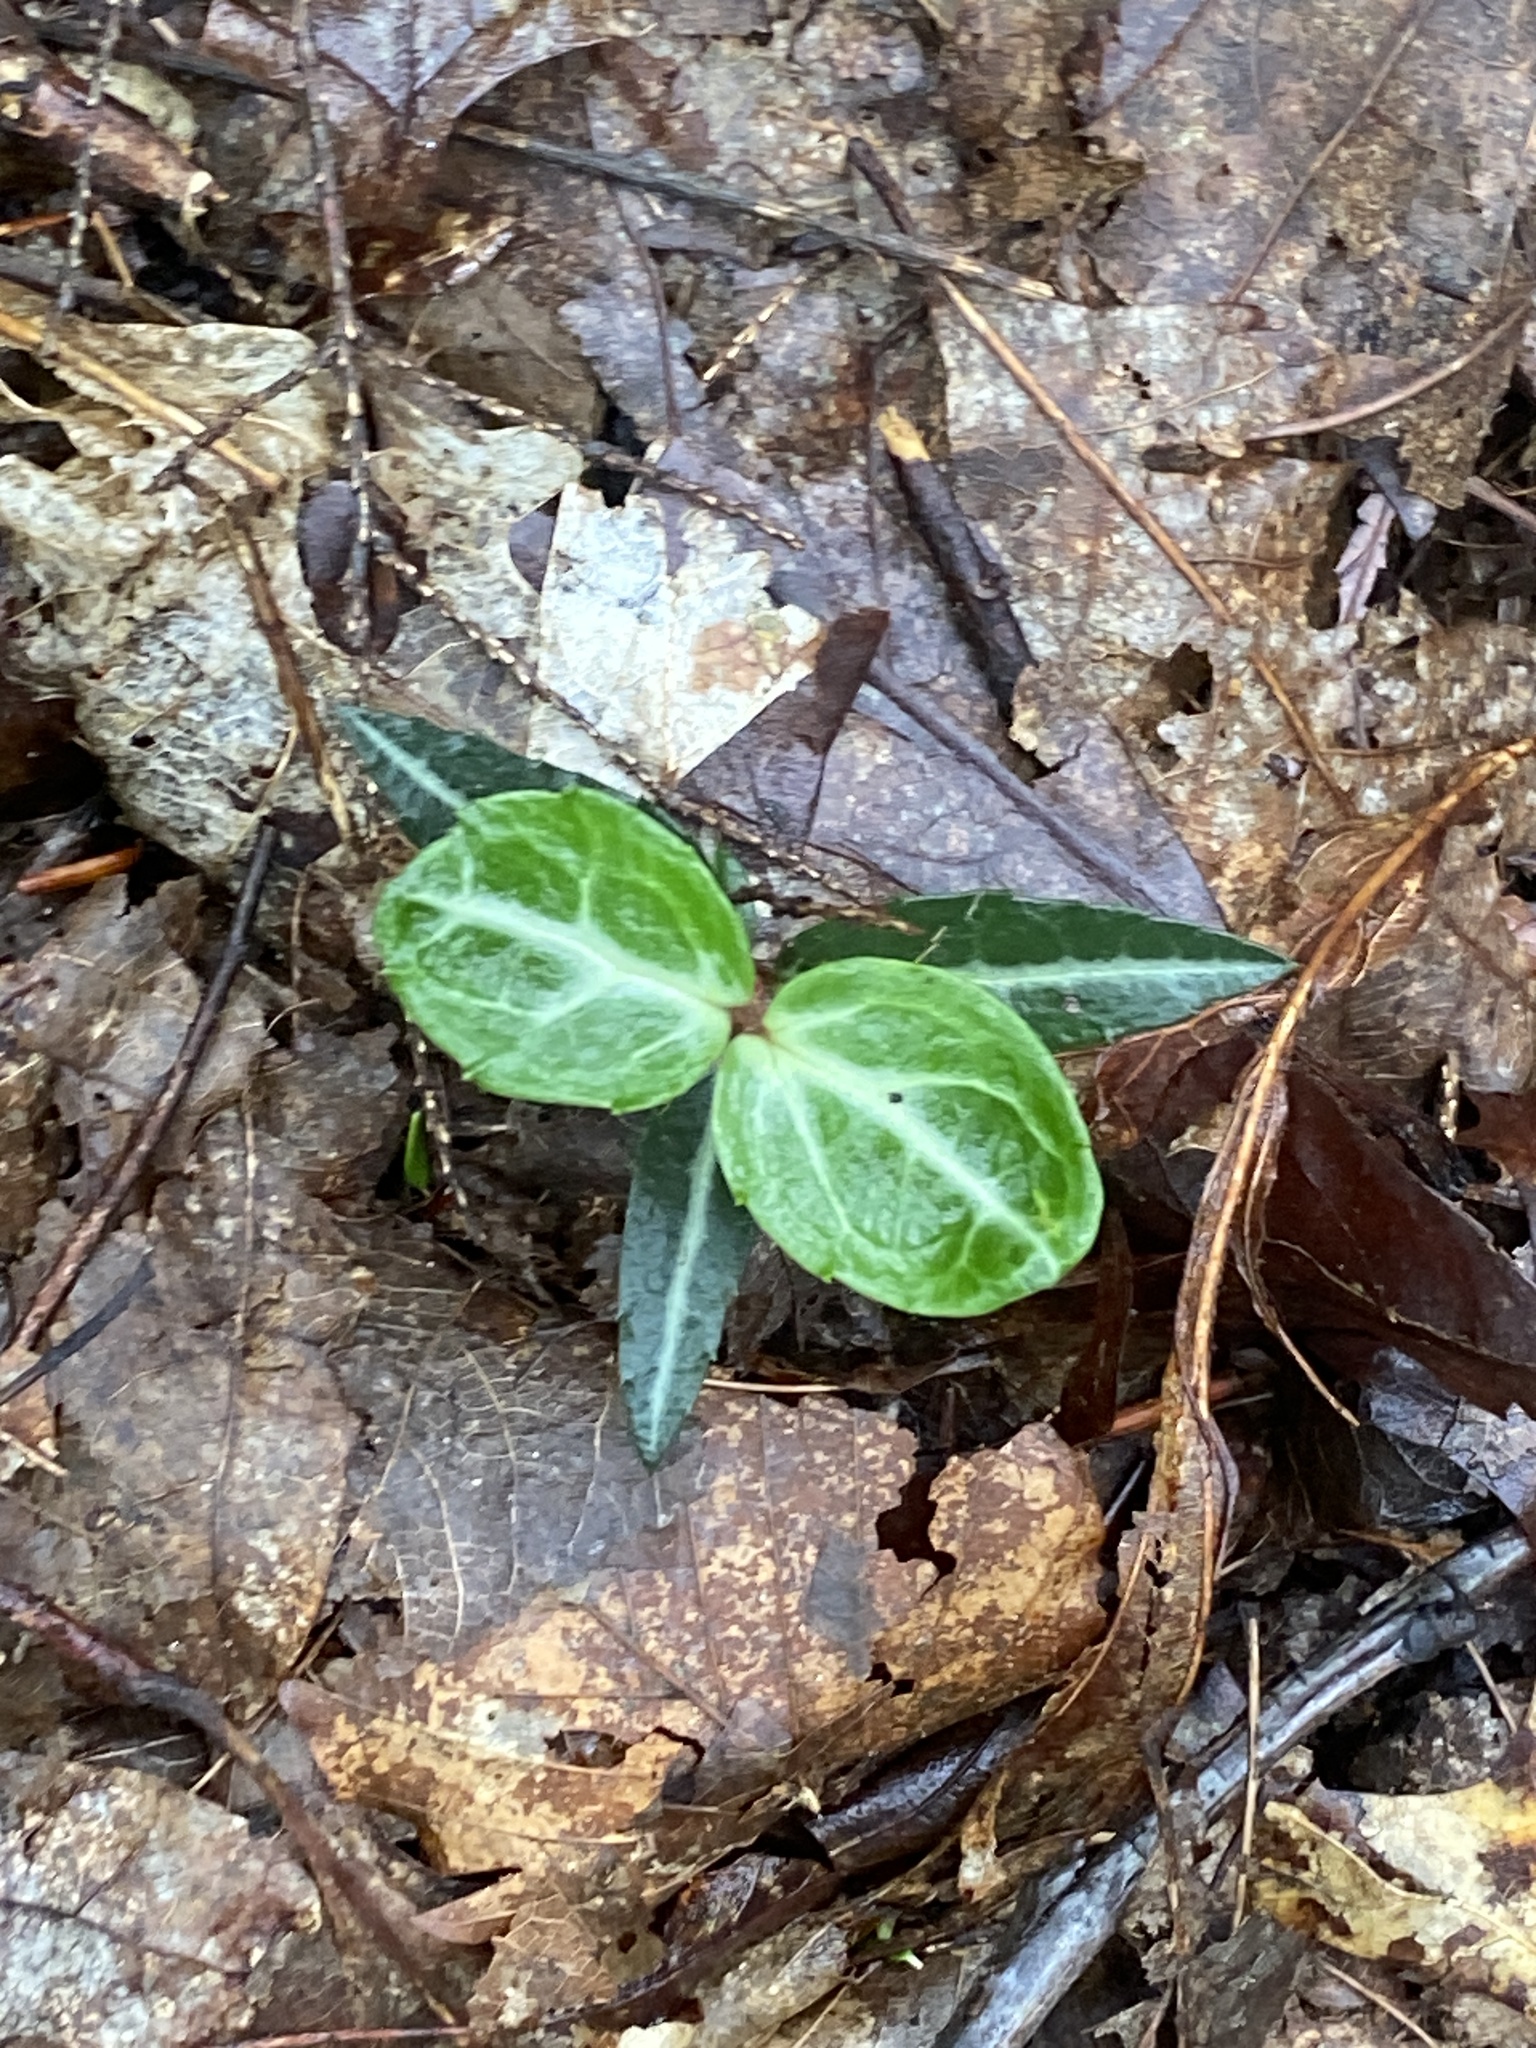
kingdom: Plantae
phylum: Tracheophyta
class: Magnoliopsida
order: Ericales
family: Ericaceae
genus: Chimaphila
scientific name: Chimaphila maculata
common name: Spotted pipsissewa
